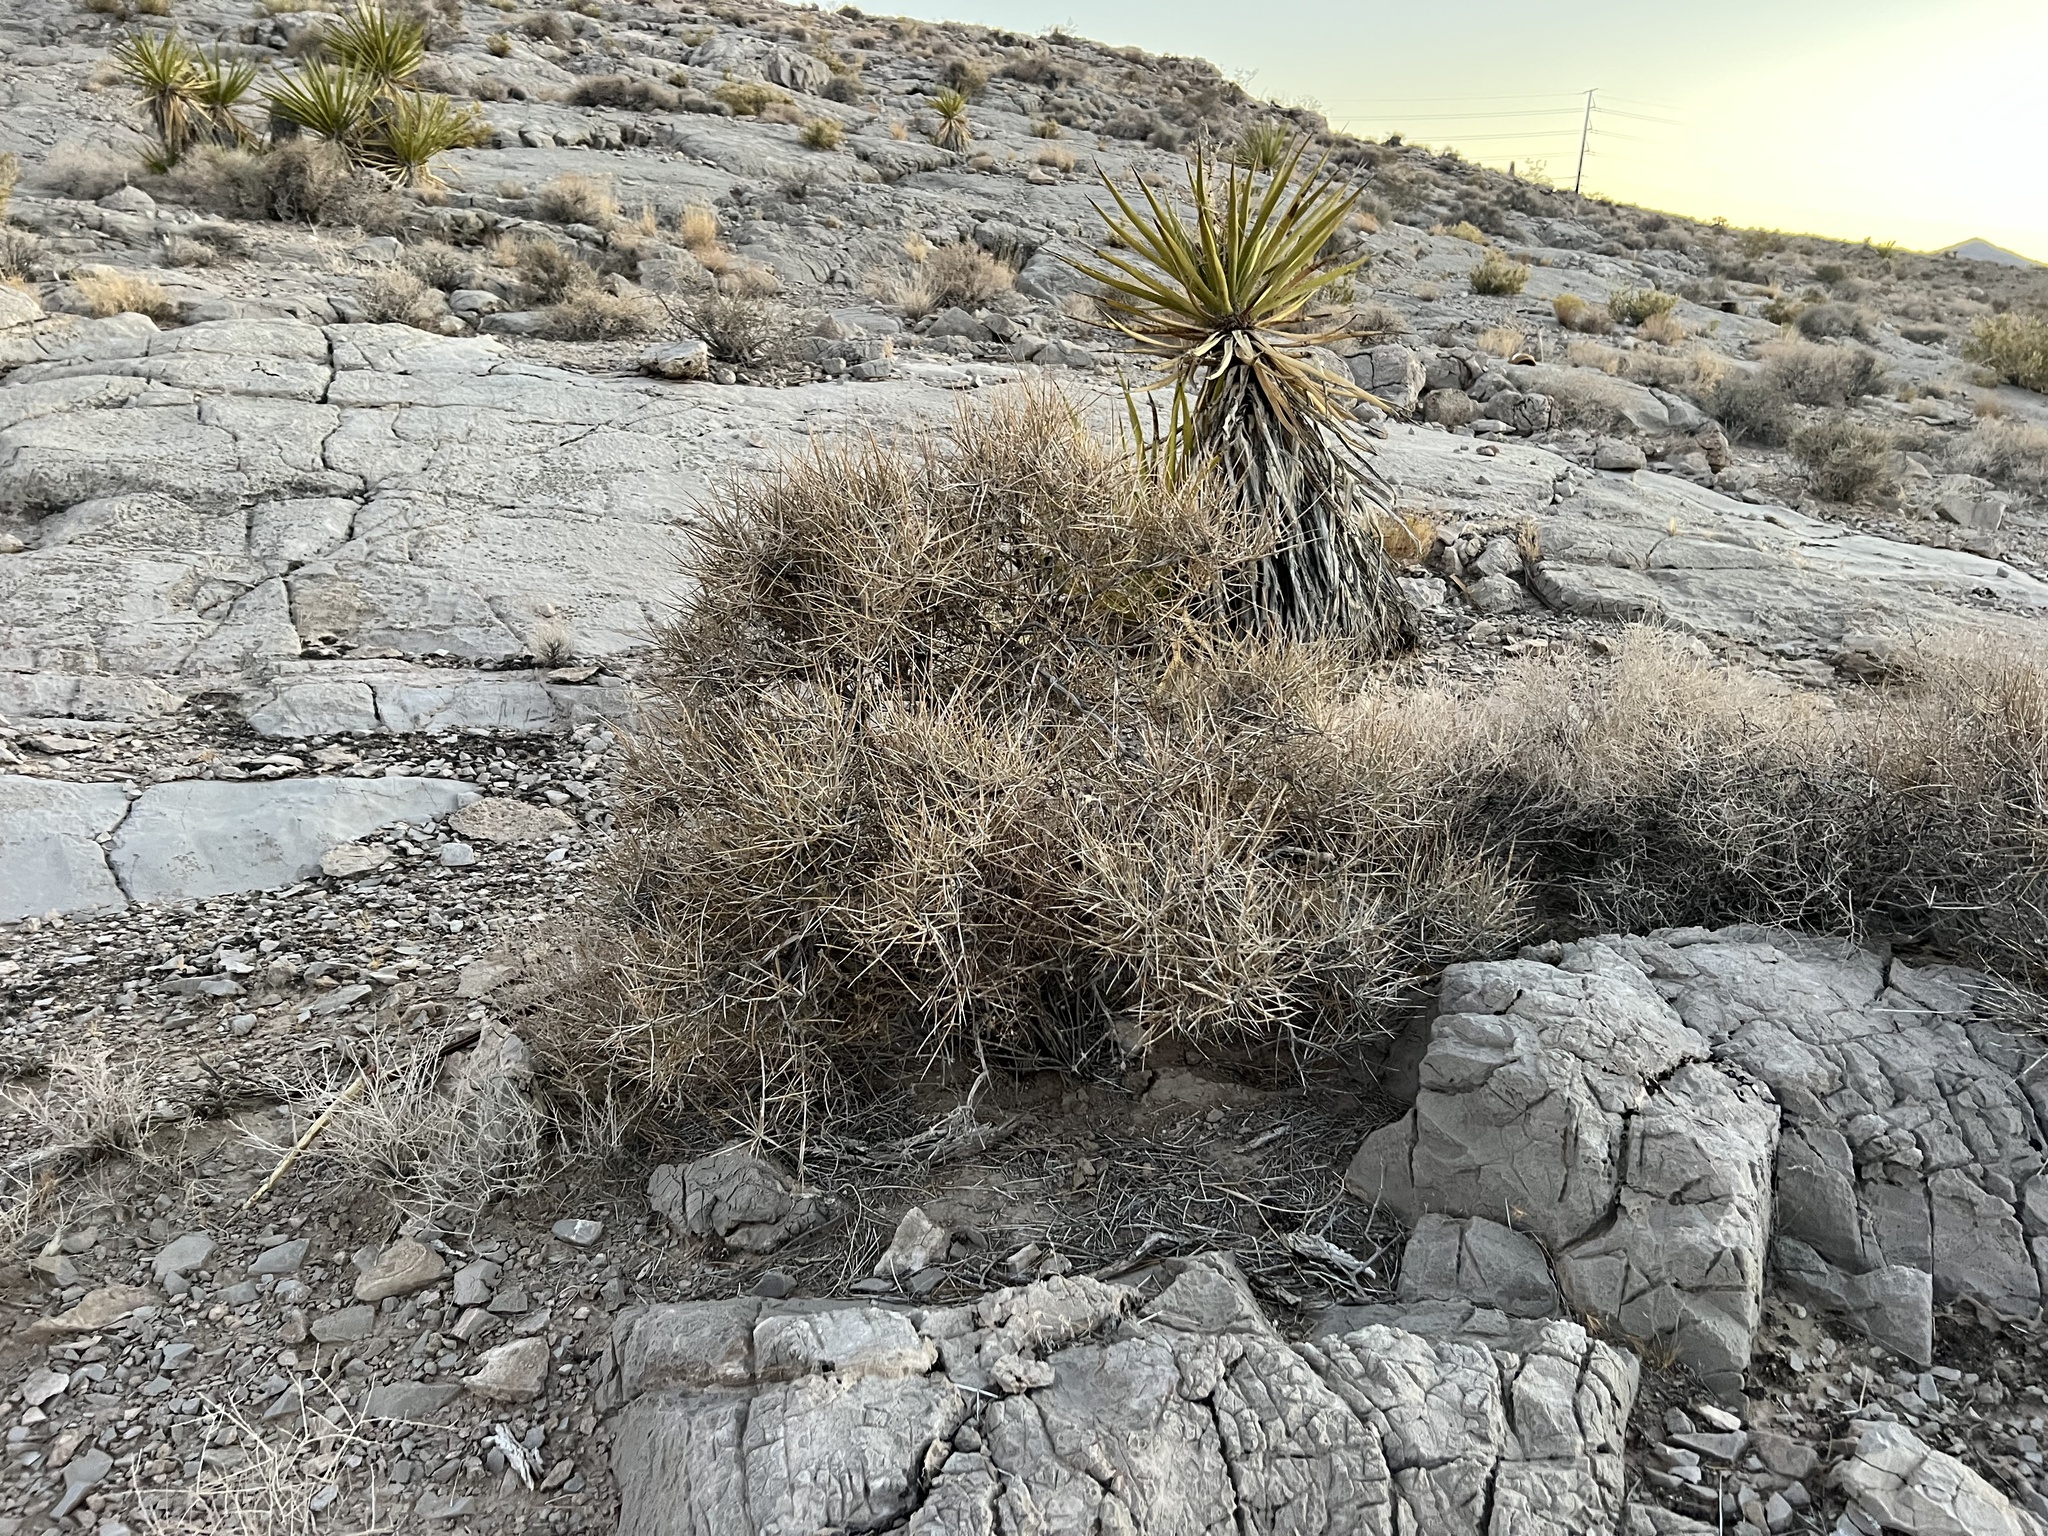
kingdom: Plantae
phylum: Tracheophyta
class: Gnetopsida
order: Ephedrales
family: Ephedraceae
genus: Ephedra
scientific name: Ephedra nevadensis
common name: Gray ephedra
